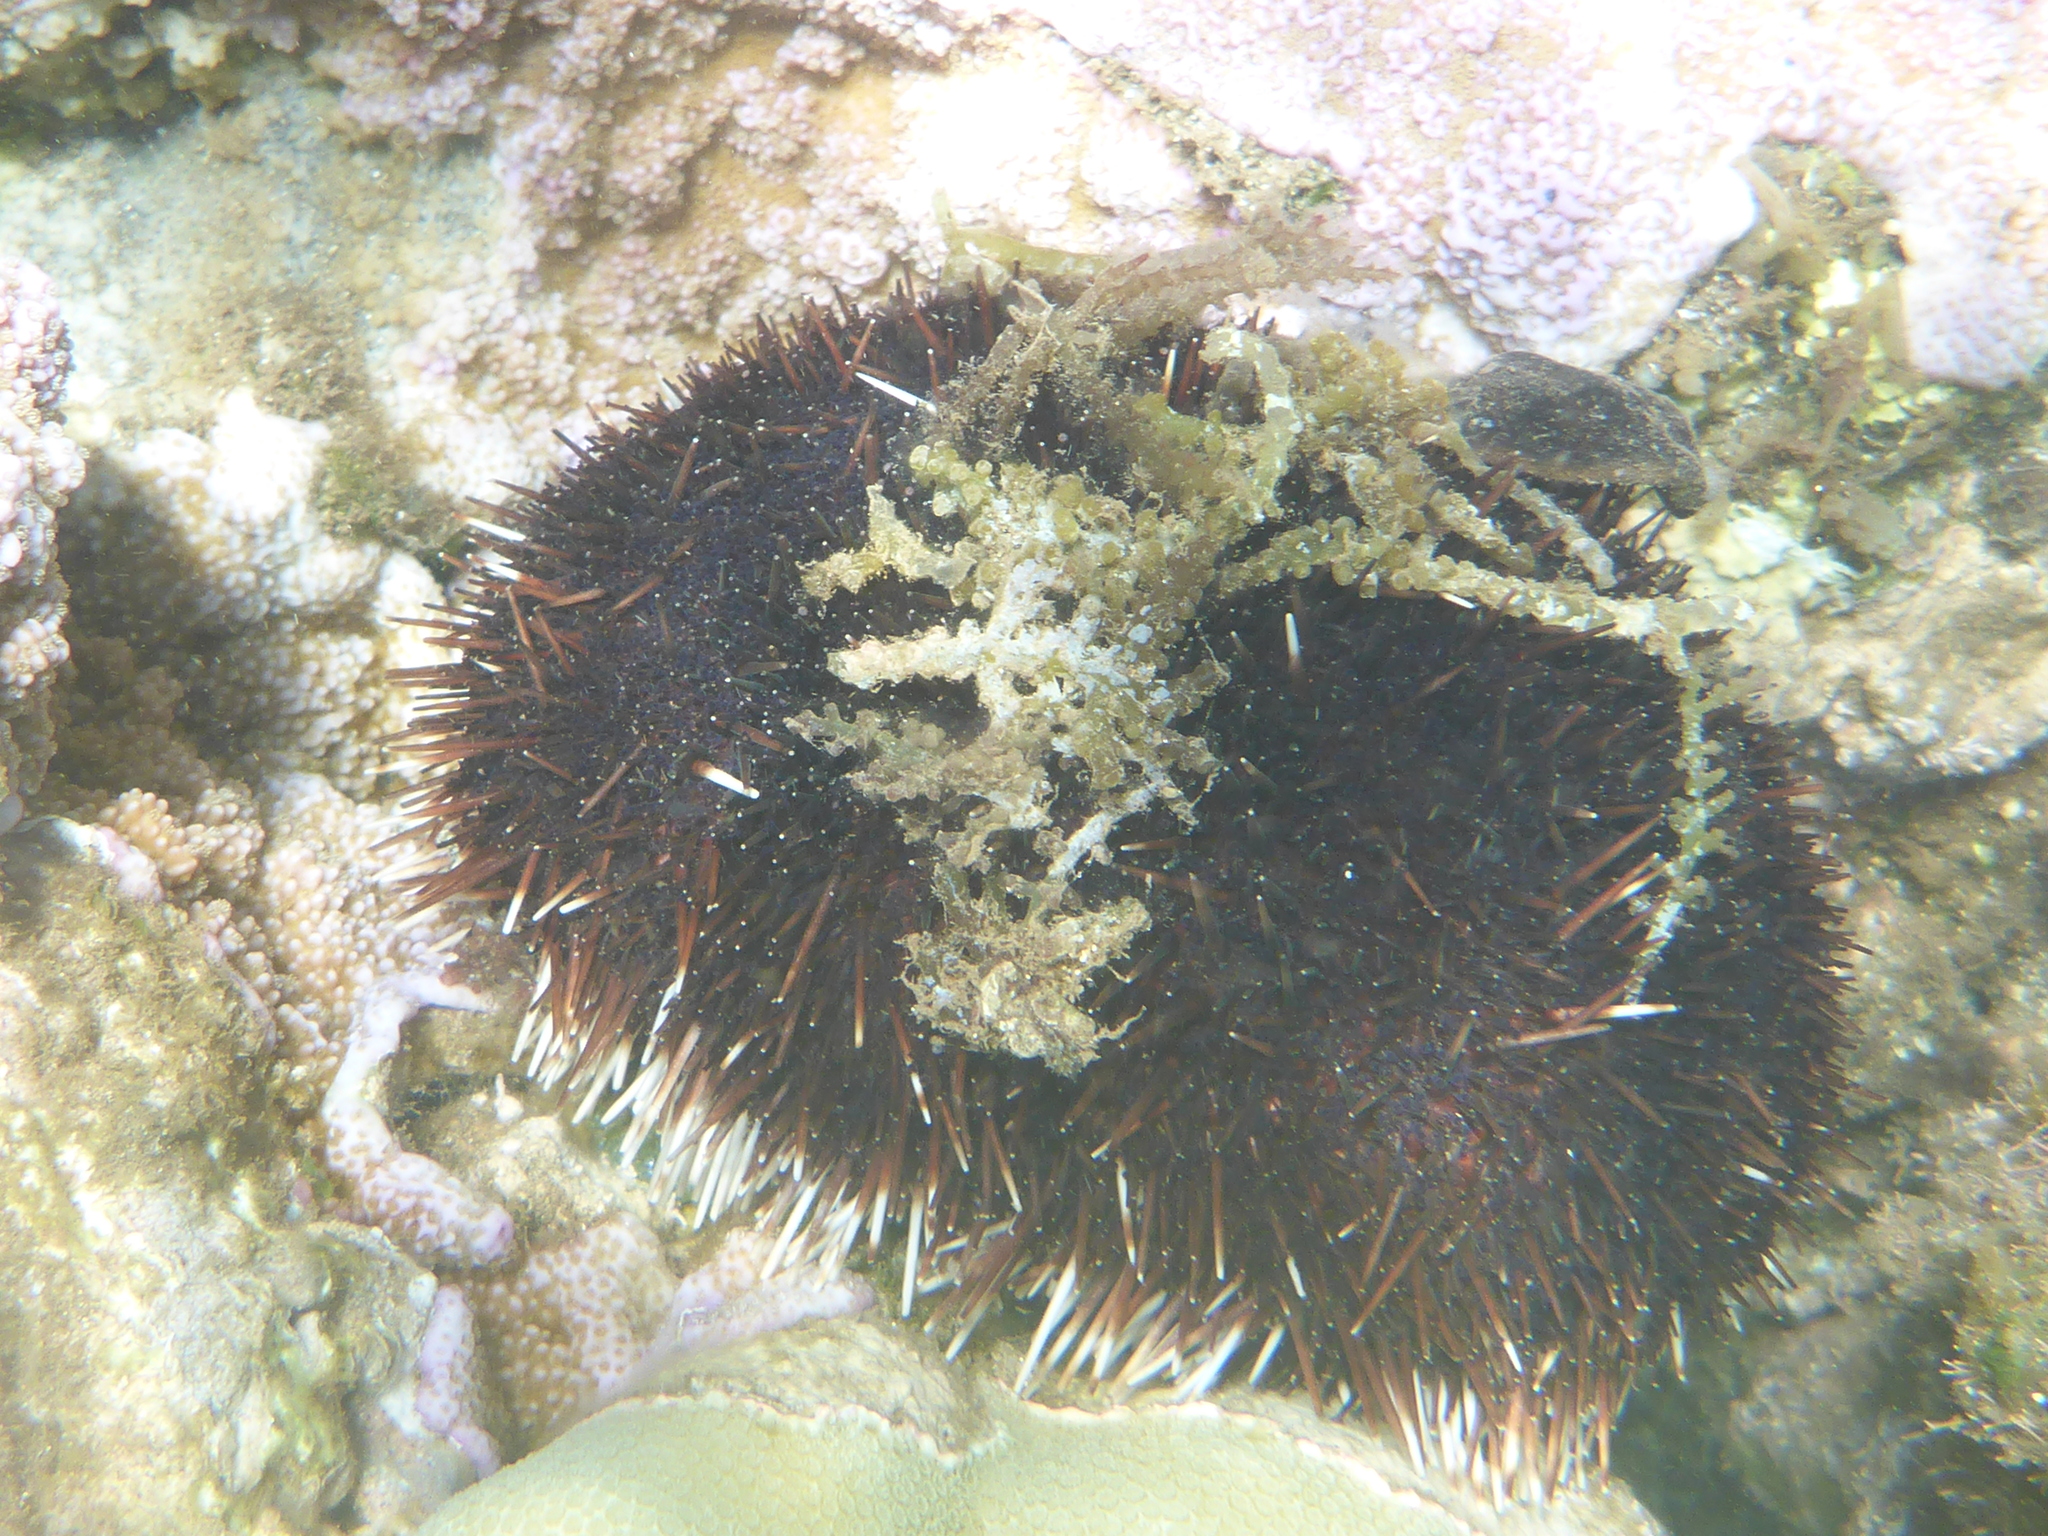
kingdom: Animalia
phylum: Echinodermata
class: Echinoidea
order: Camarodonta
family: Toxopneustidae
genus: Tripneustes
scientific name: Tripneustes gratilla
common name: Bischofsmützenseeigel
